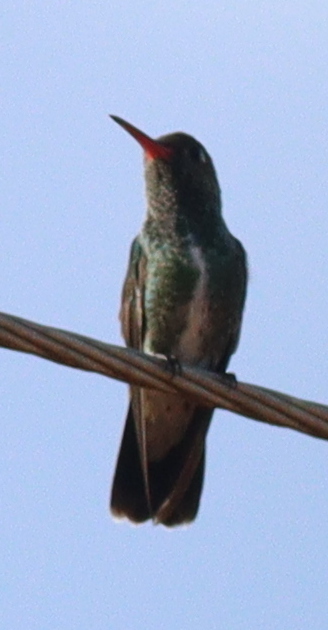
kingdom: Animalia
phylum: Chordata
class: Aves
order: Apodiformes
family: Trochilidae
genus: Chionomesa
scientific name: Chionomesa fimbriata
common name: Glittering-throated emerald
